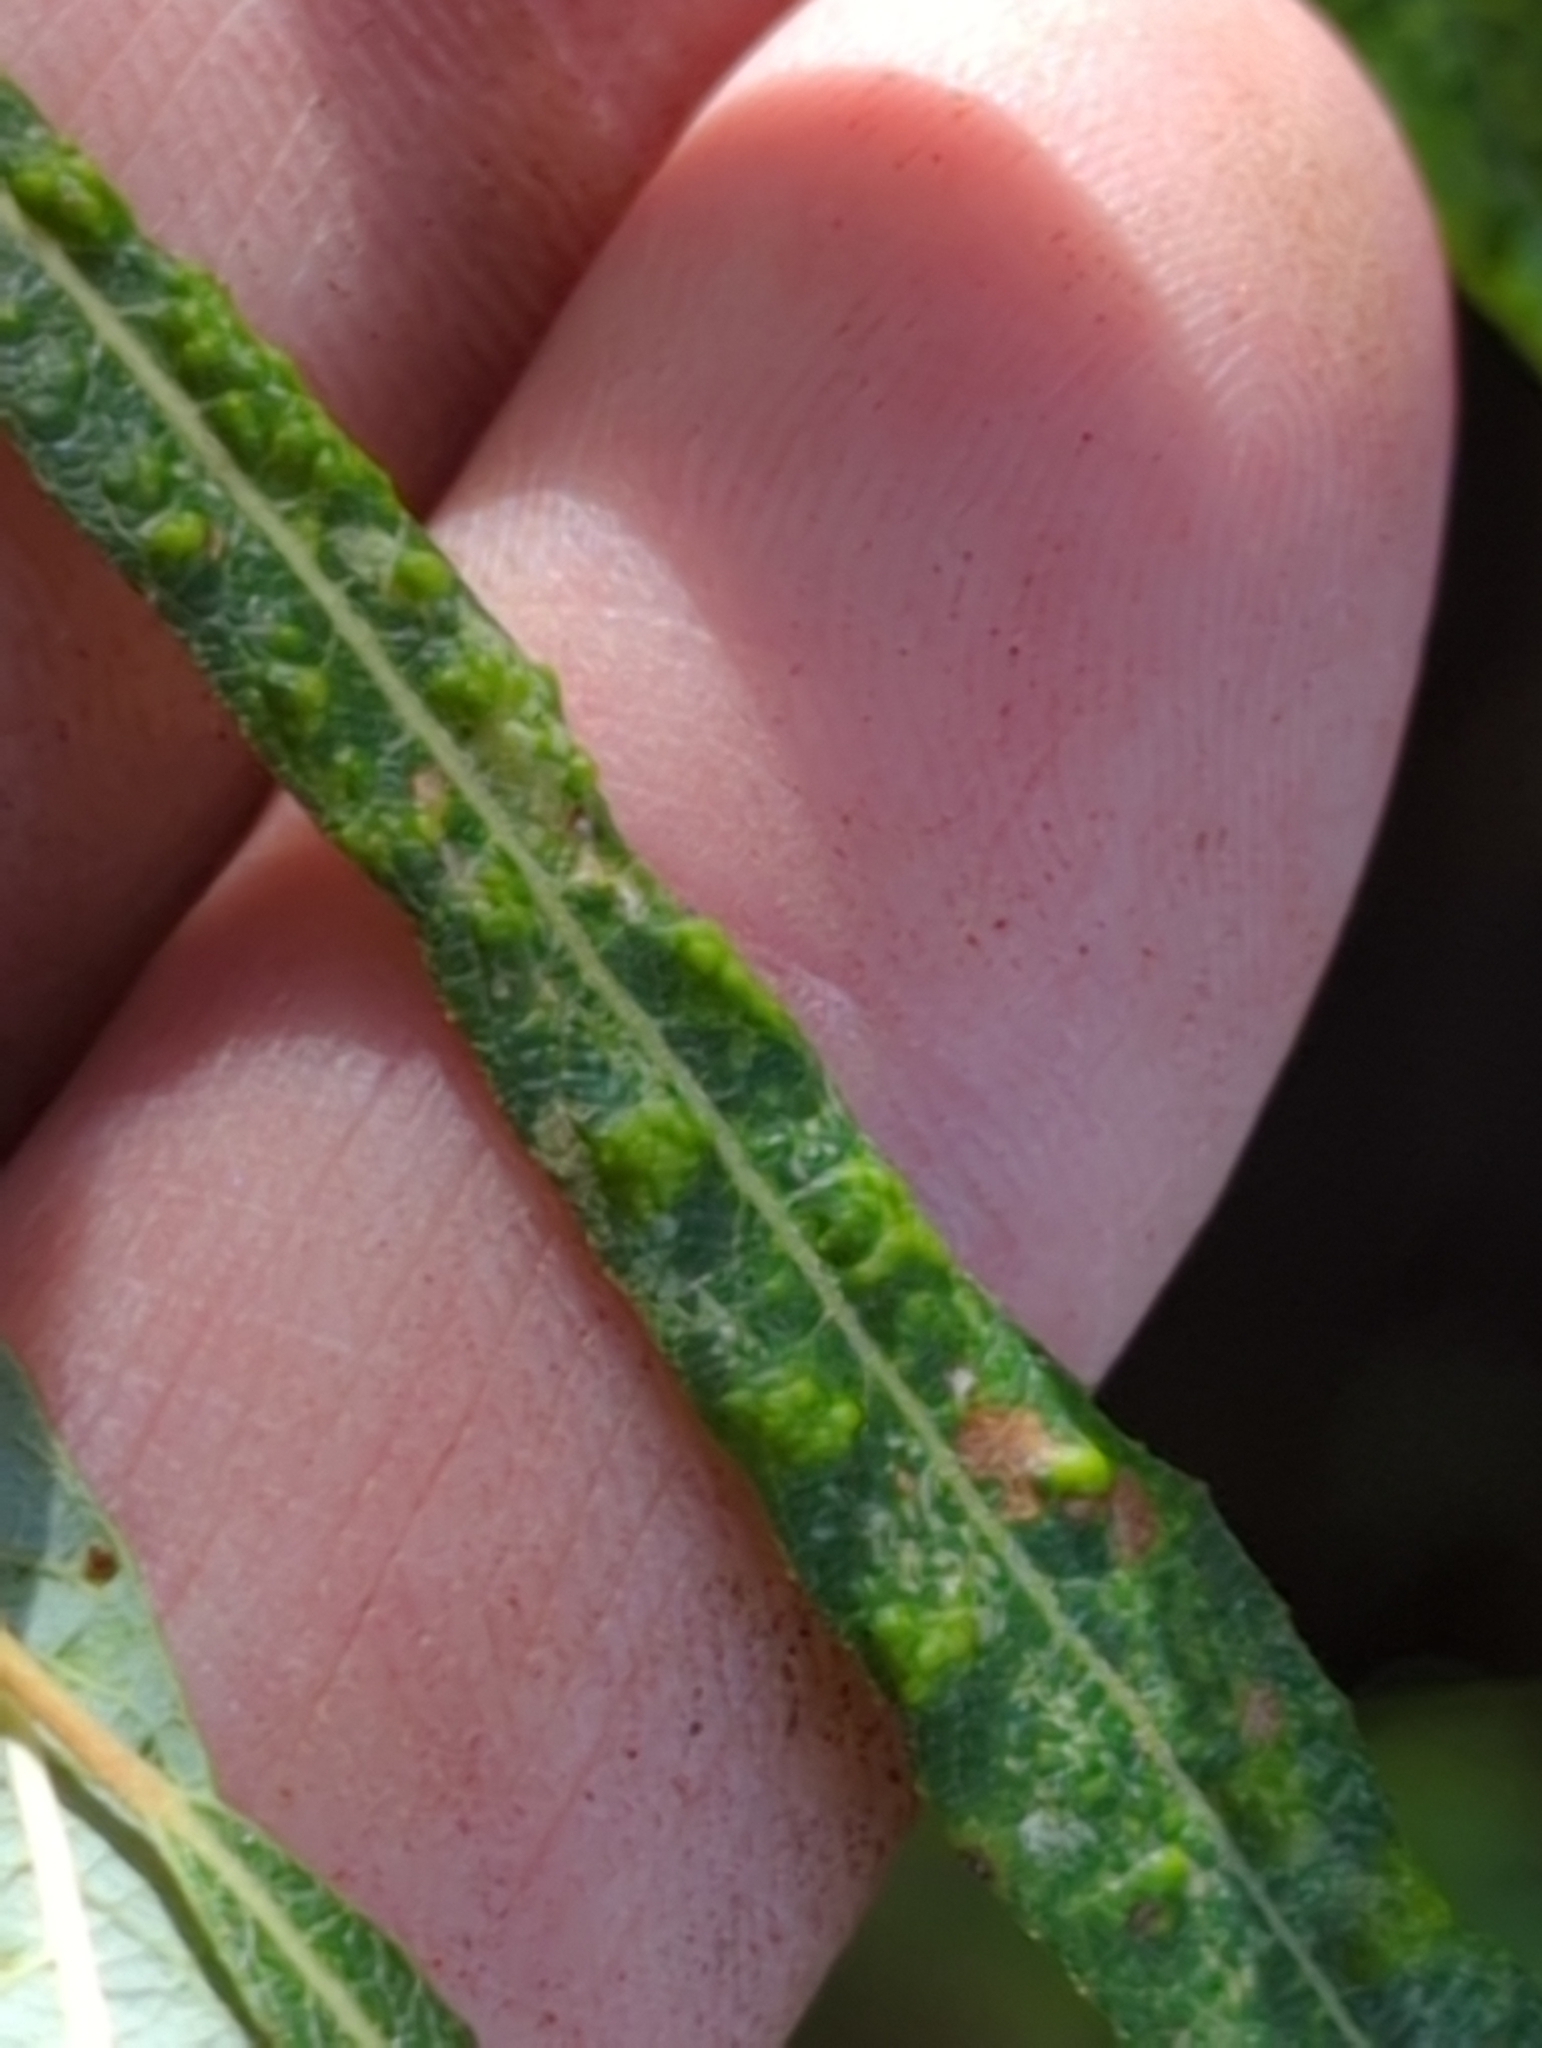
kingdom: Animalia
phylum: Arthropoda
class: Arachnida
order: Trombidiformes
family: Eriophyidae
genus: Aculus
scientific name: Aculus tetanothrix
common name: Willow bead gall mite
